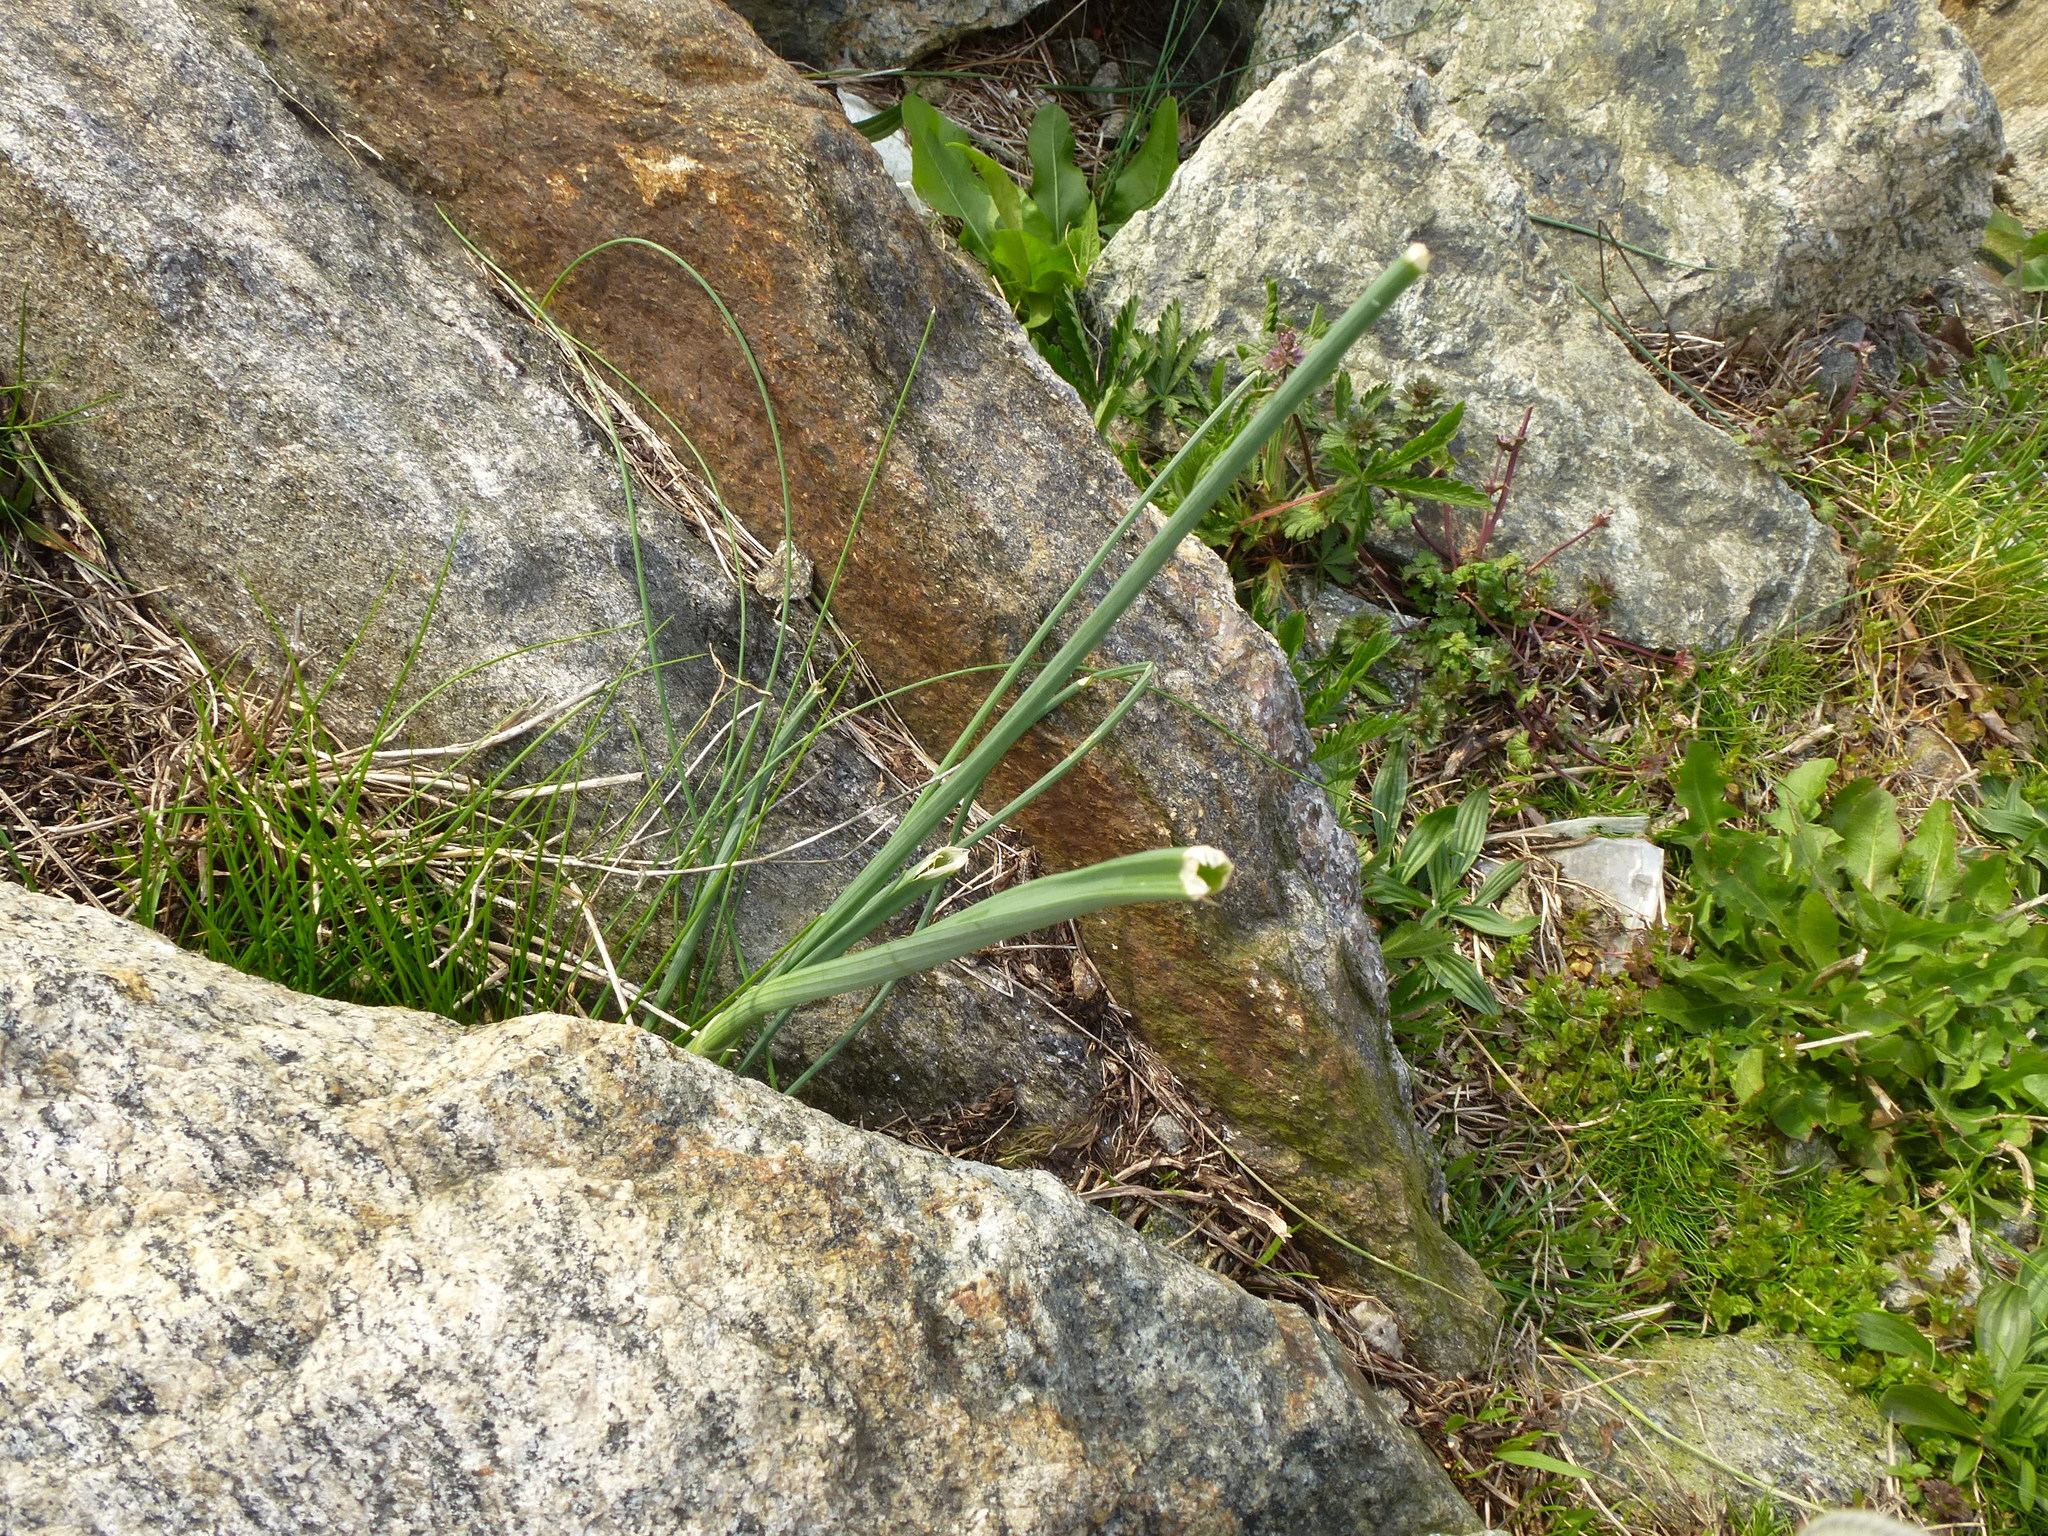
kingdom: Plantae
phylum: Tracheophyta
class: Liliopsida
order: Asparagales
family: Amaryllidaceae
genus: Allium
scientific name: Allium vineale
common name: Crow garlic
